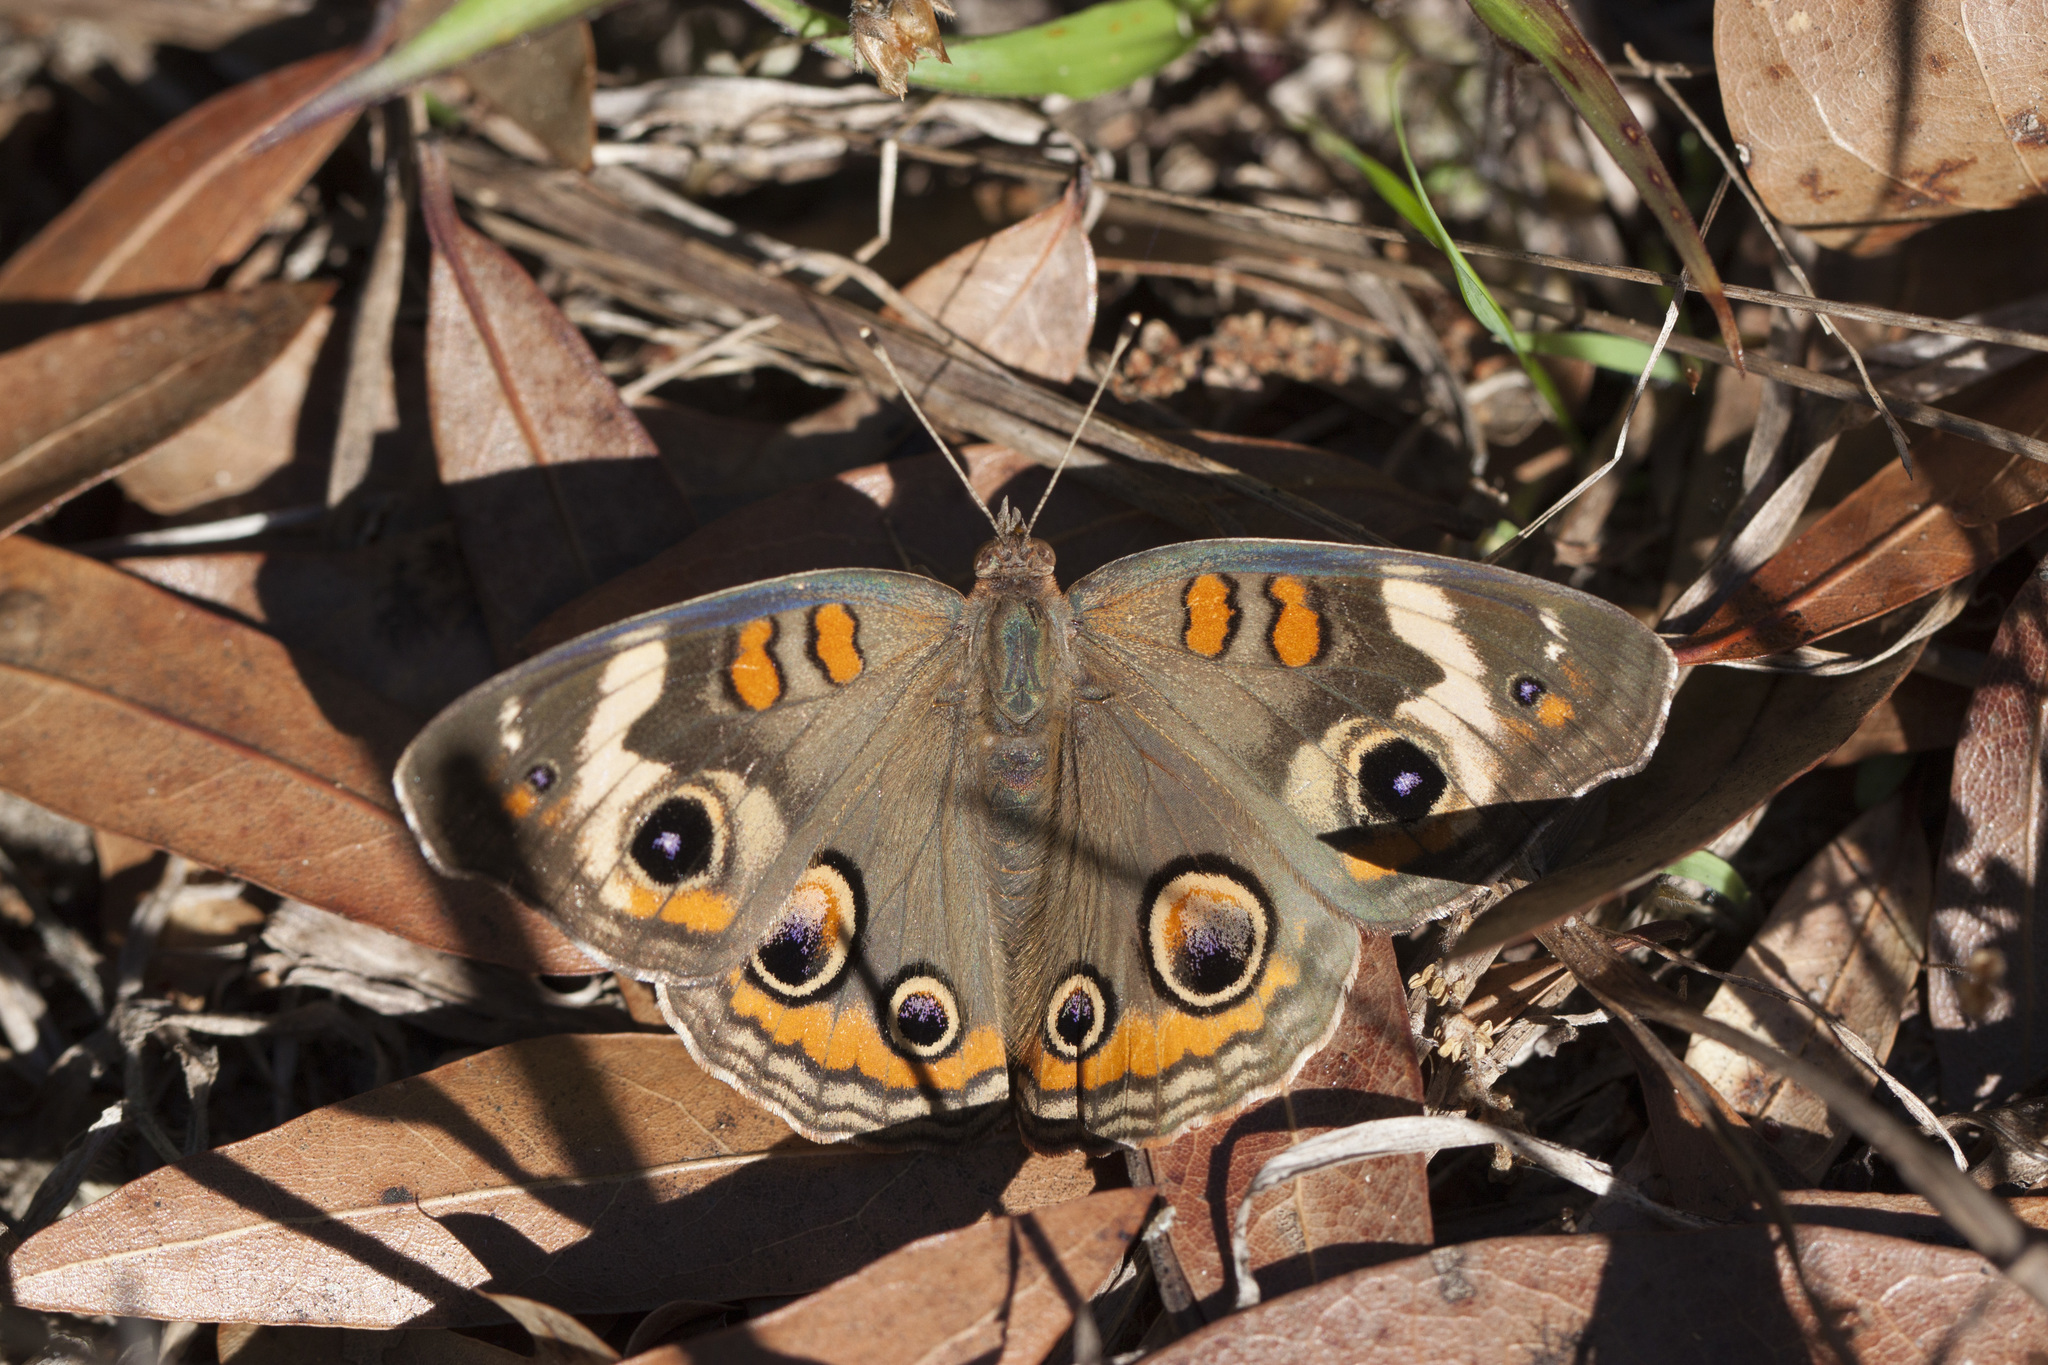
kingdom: Animalia
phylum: Arthropoda
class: Insecta
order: Lepidoptera
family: Nymphalidae
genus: Junonia
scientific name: Junonia coenia
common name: Common buckeye
